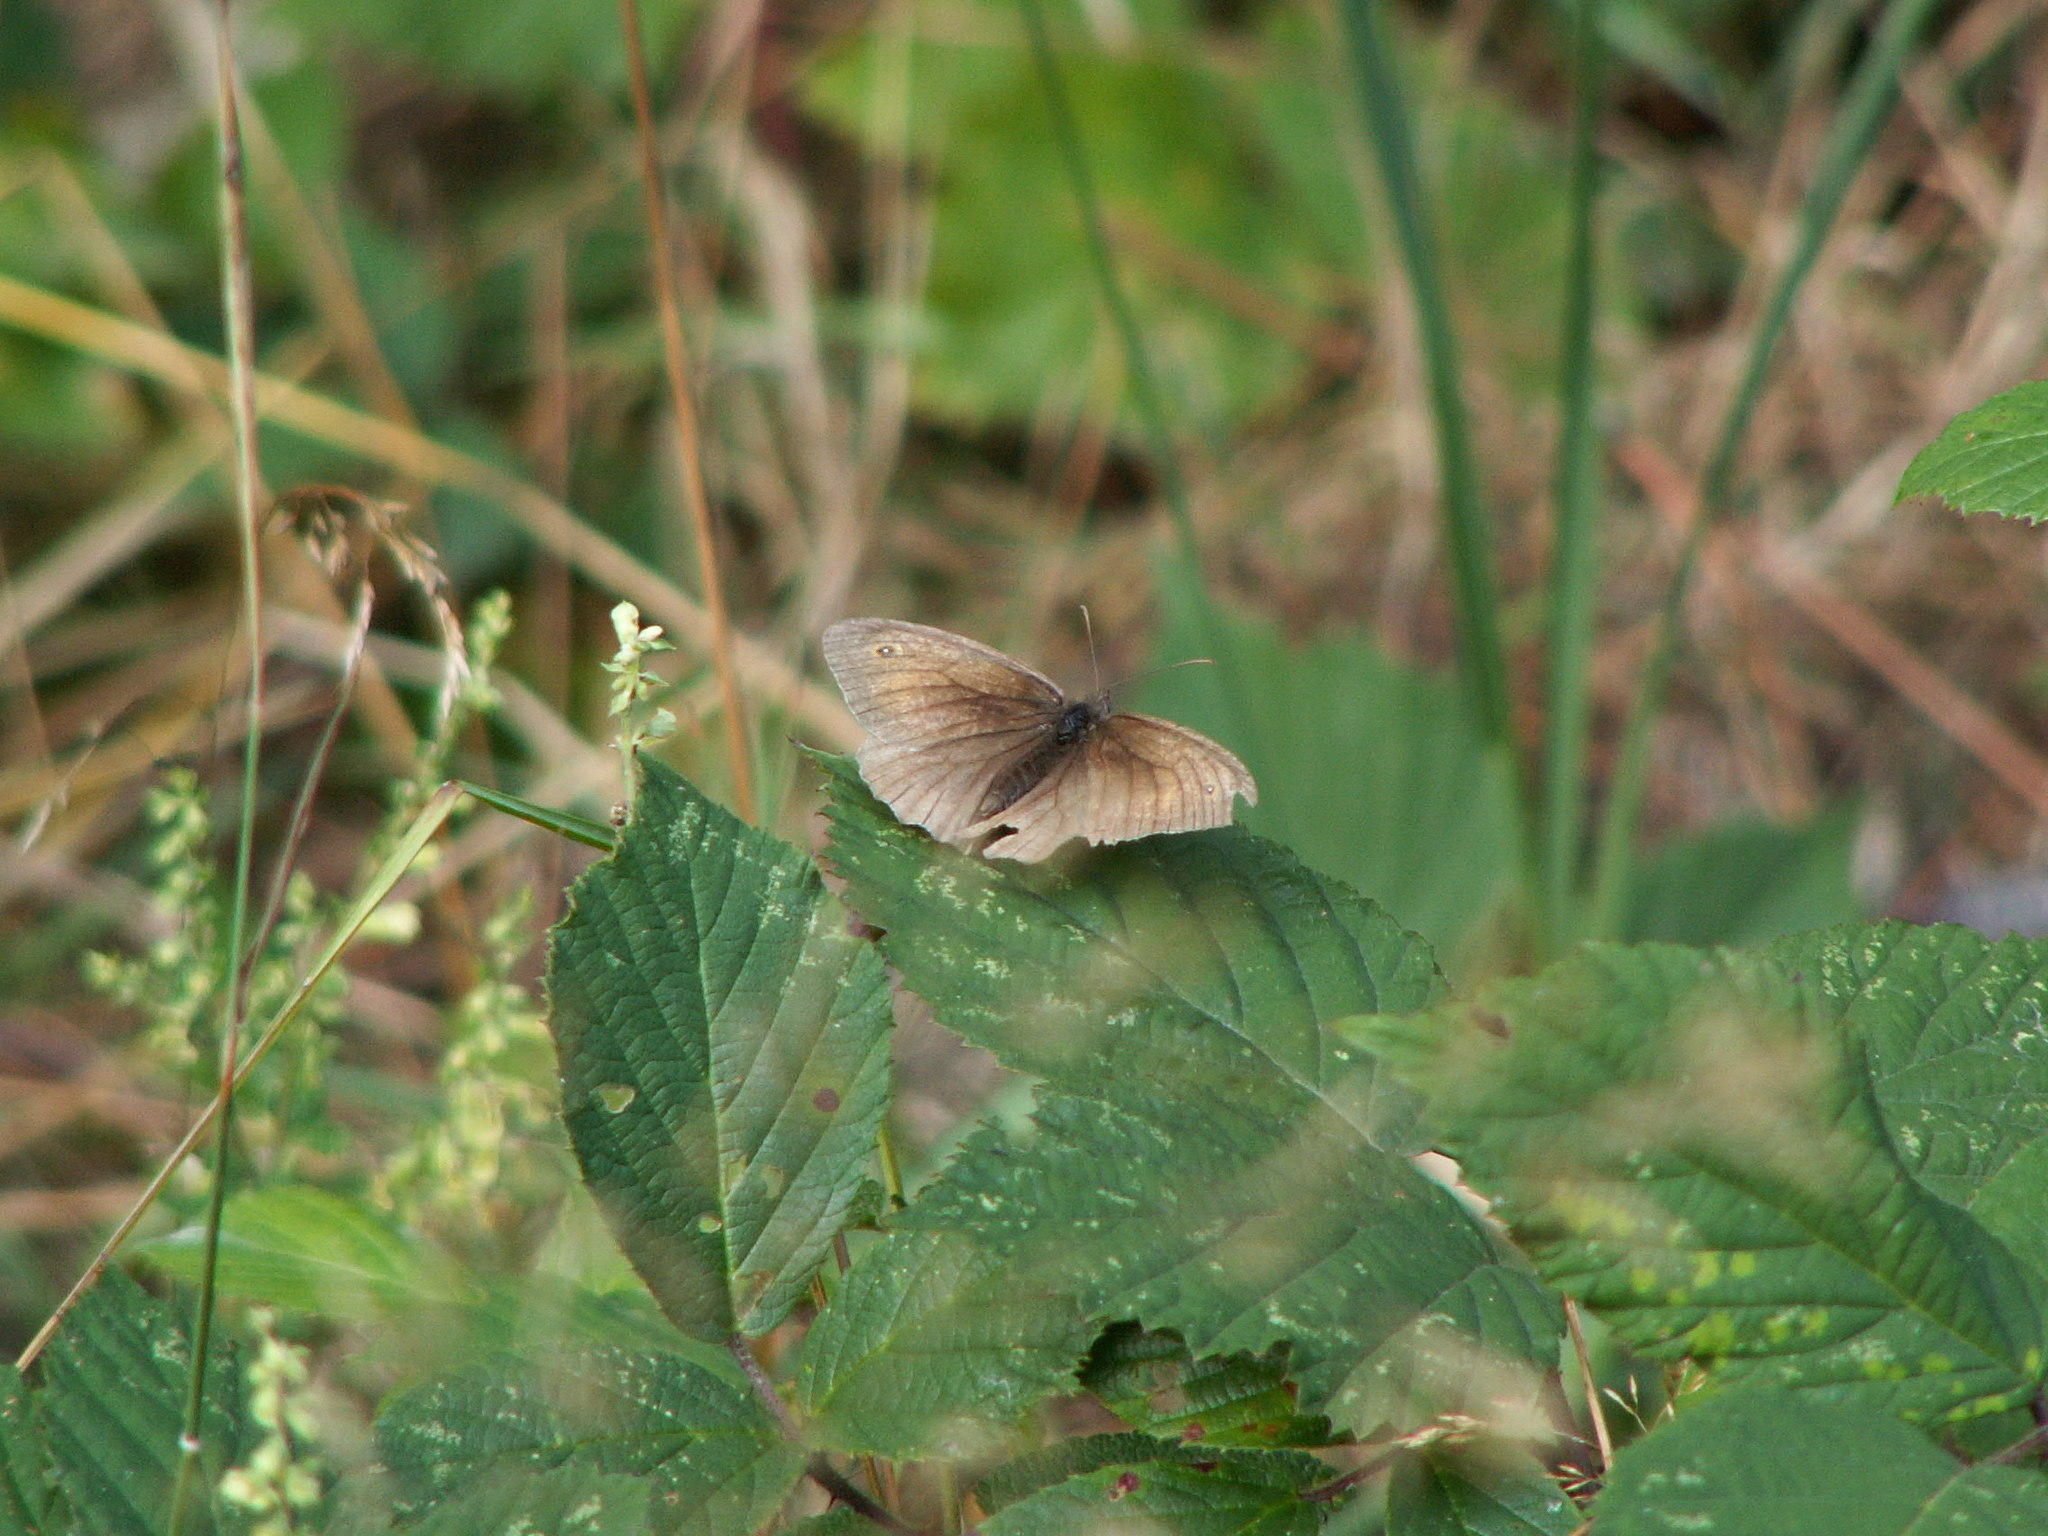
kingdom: Animalia
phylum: Arthropoda
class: Insecta
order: Lepidoptera
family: Nymphalidae
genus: Maniola
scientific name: Maniola jurtina
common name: Meadow brown
